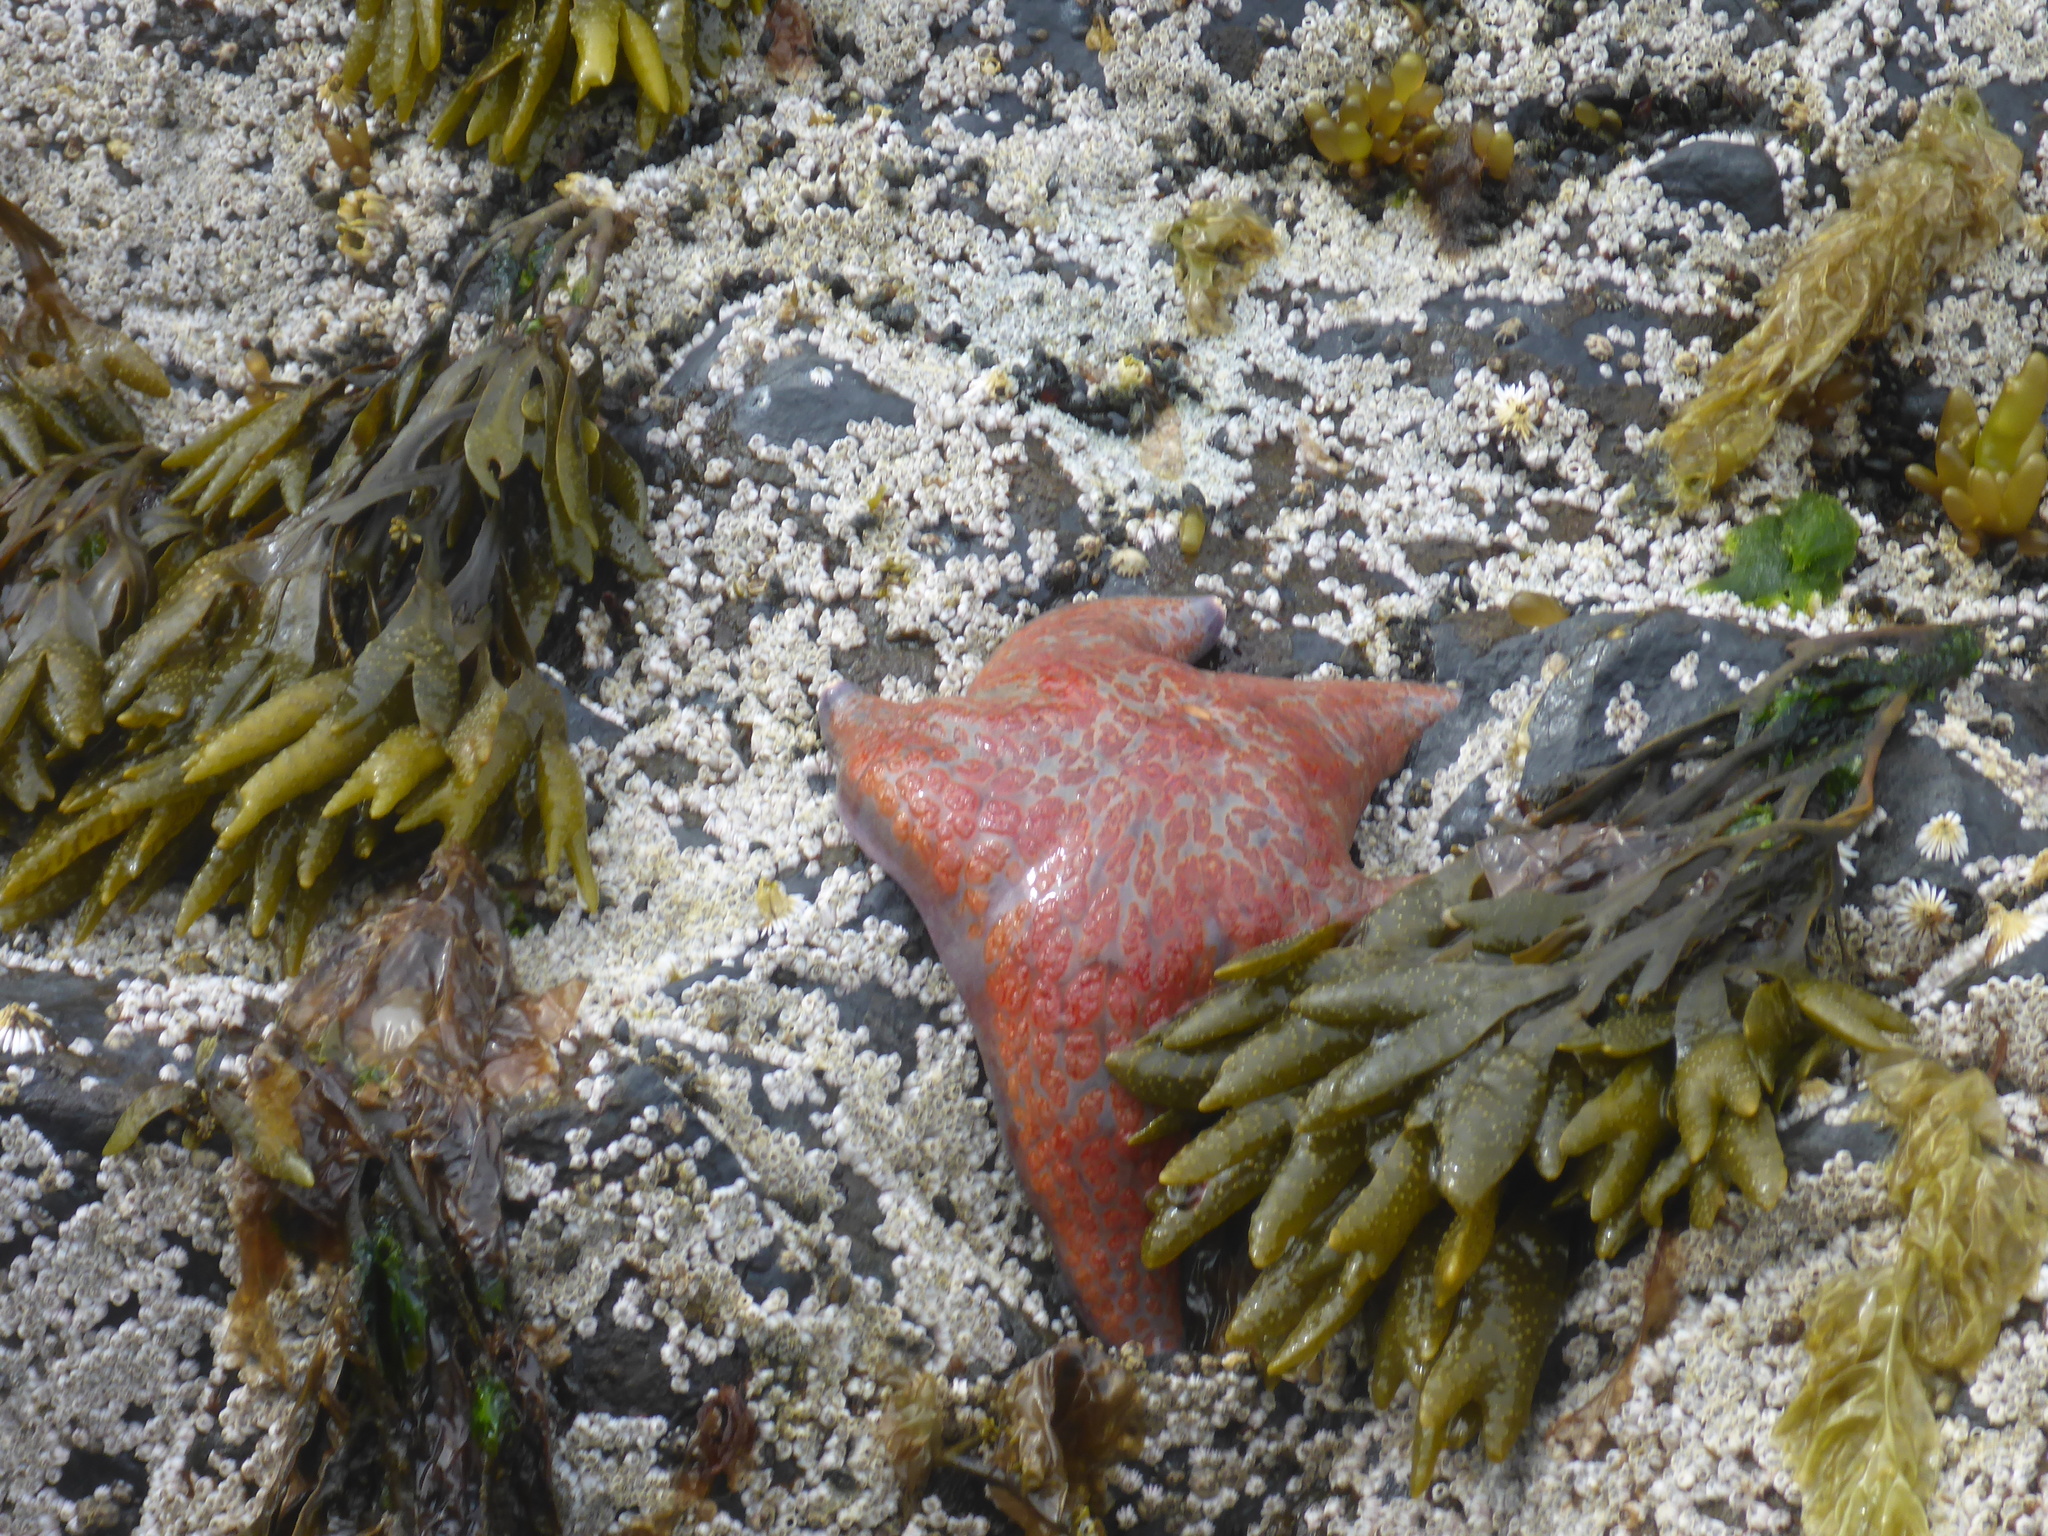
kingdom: Animalia
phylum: Echinodermata
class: Asteroidea
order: Valvatida
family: Asteropseidae
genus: Dermasterias
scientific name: Dermasterias imbricata
